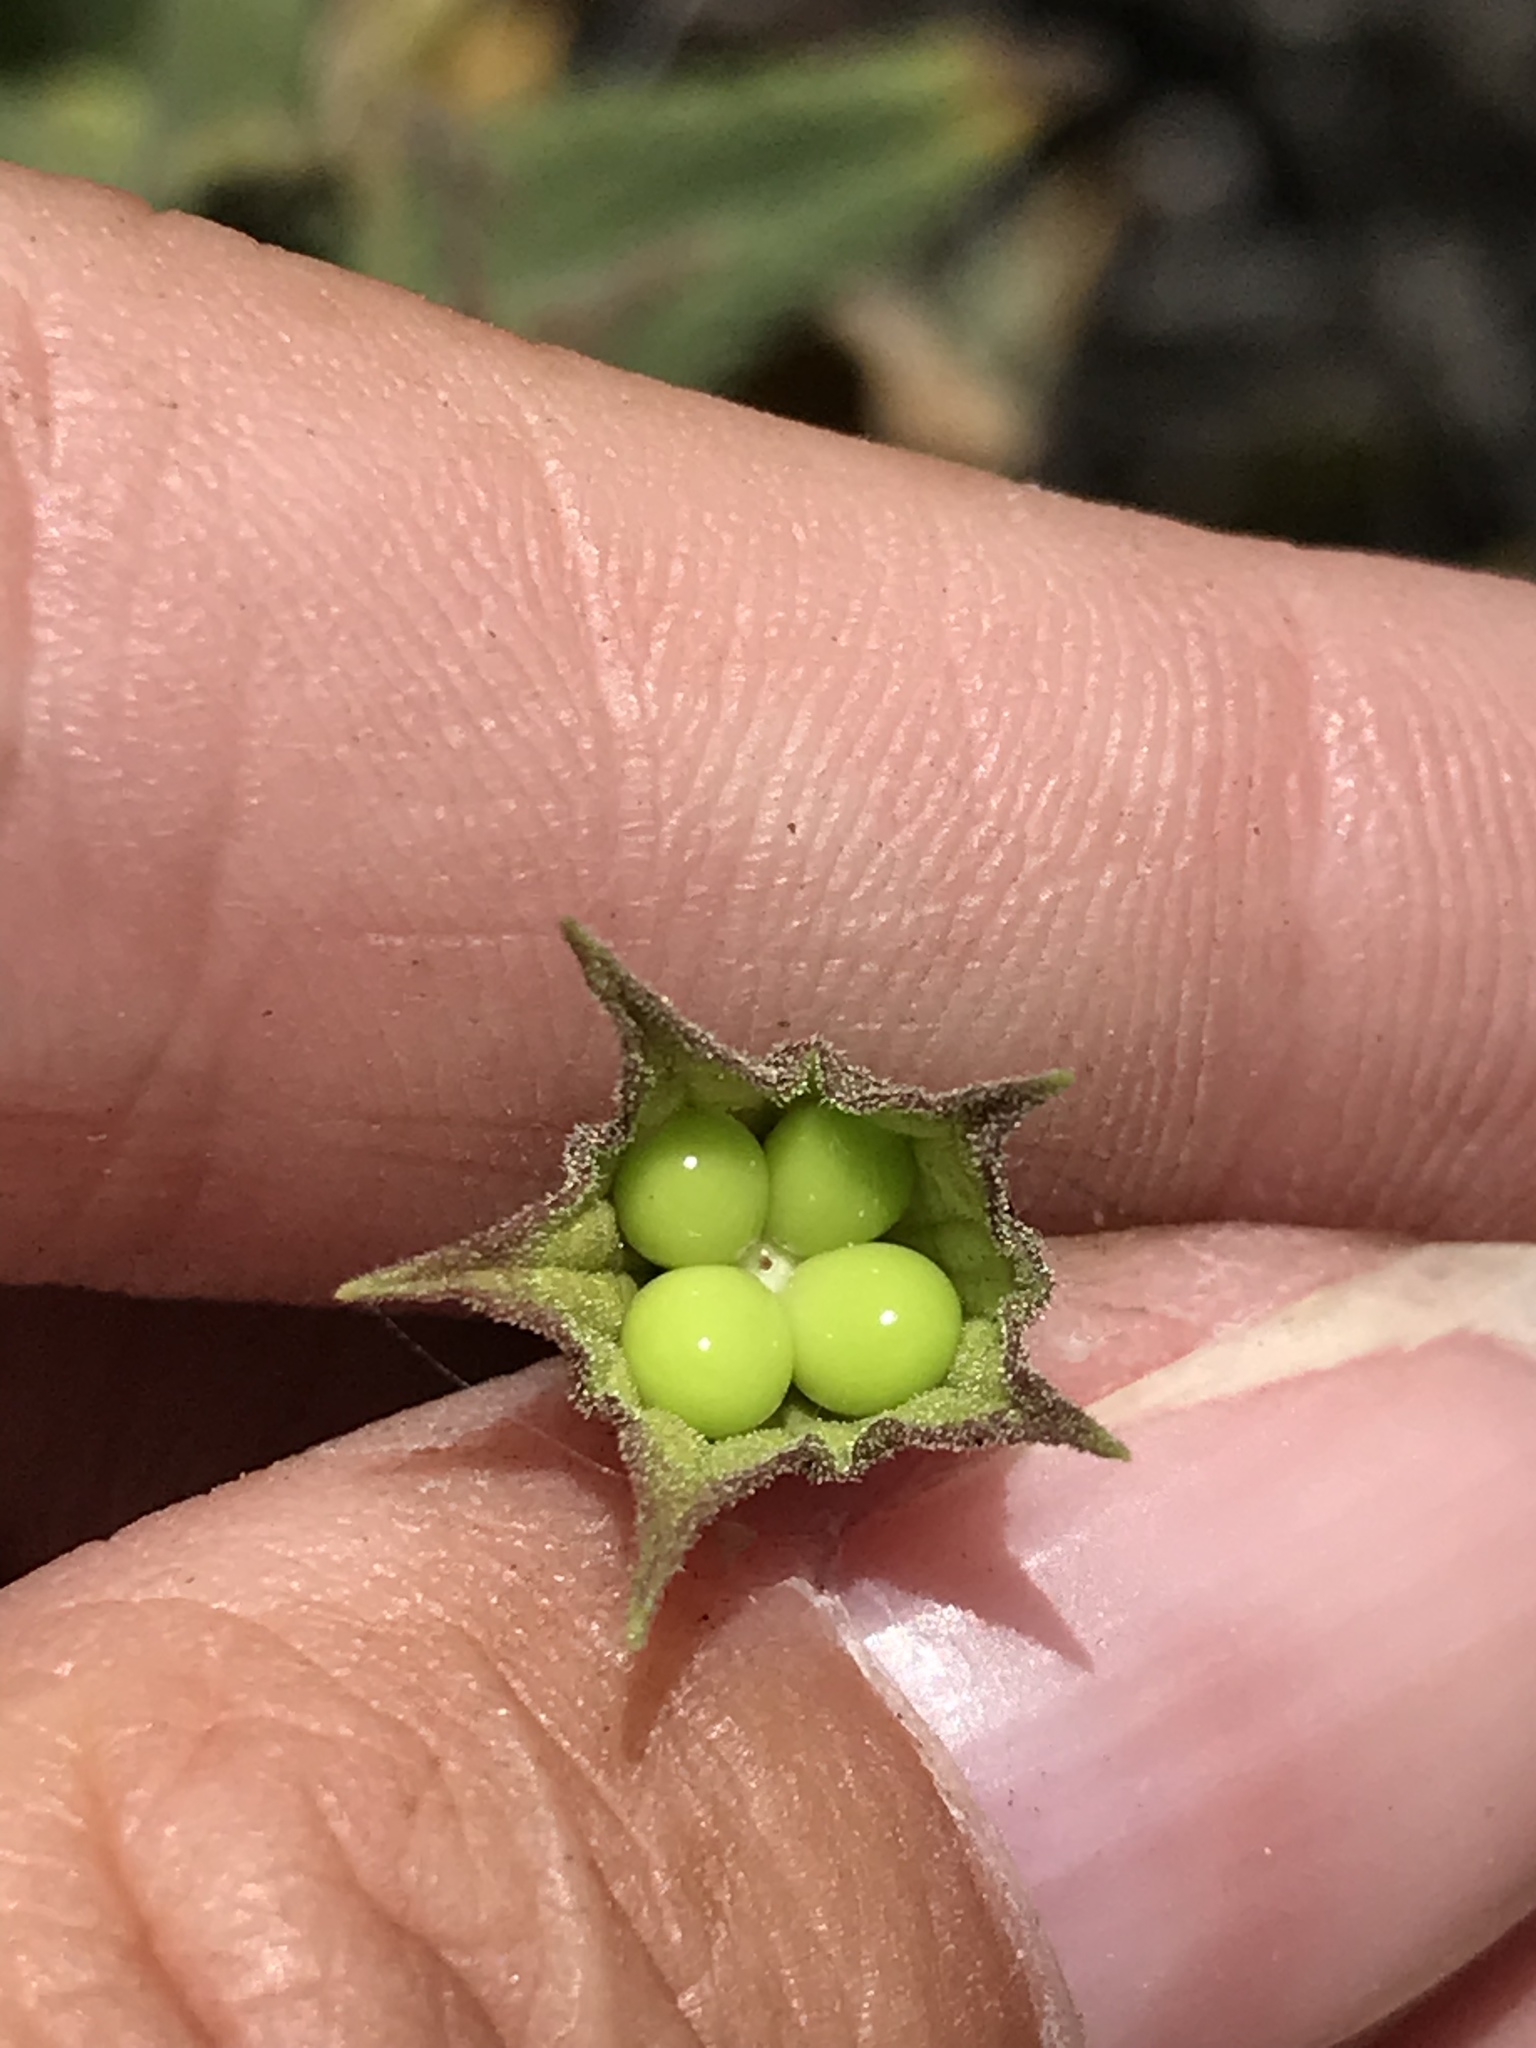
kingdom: Plantae
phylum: Tracheophyta
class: Magnoliopsida
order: Lamiales
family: Lamiaceae
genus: Lepechinia
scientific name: Lepechinia ganderi
